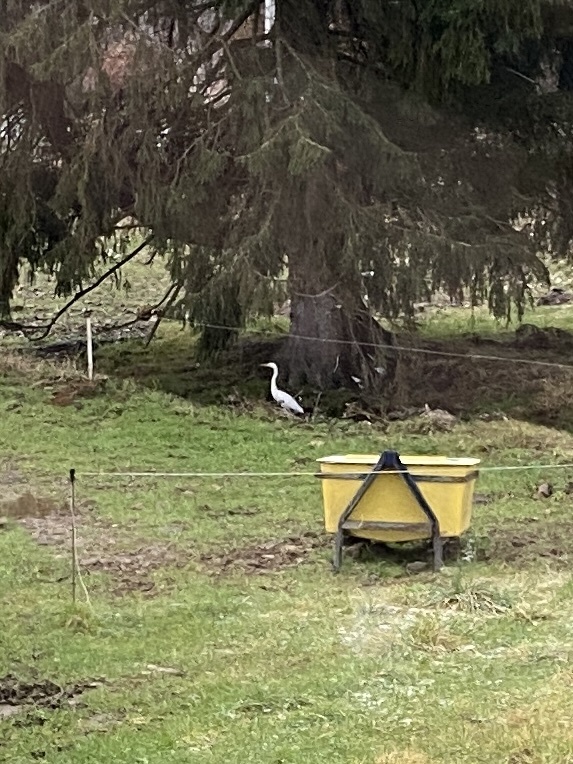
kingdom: Animalia
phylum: Chordata
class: Aves
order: Pelecaniformes
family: Ardeidae
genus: Ardea
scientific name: Ardea alba
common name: Great egret
